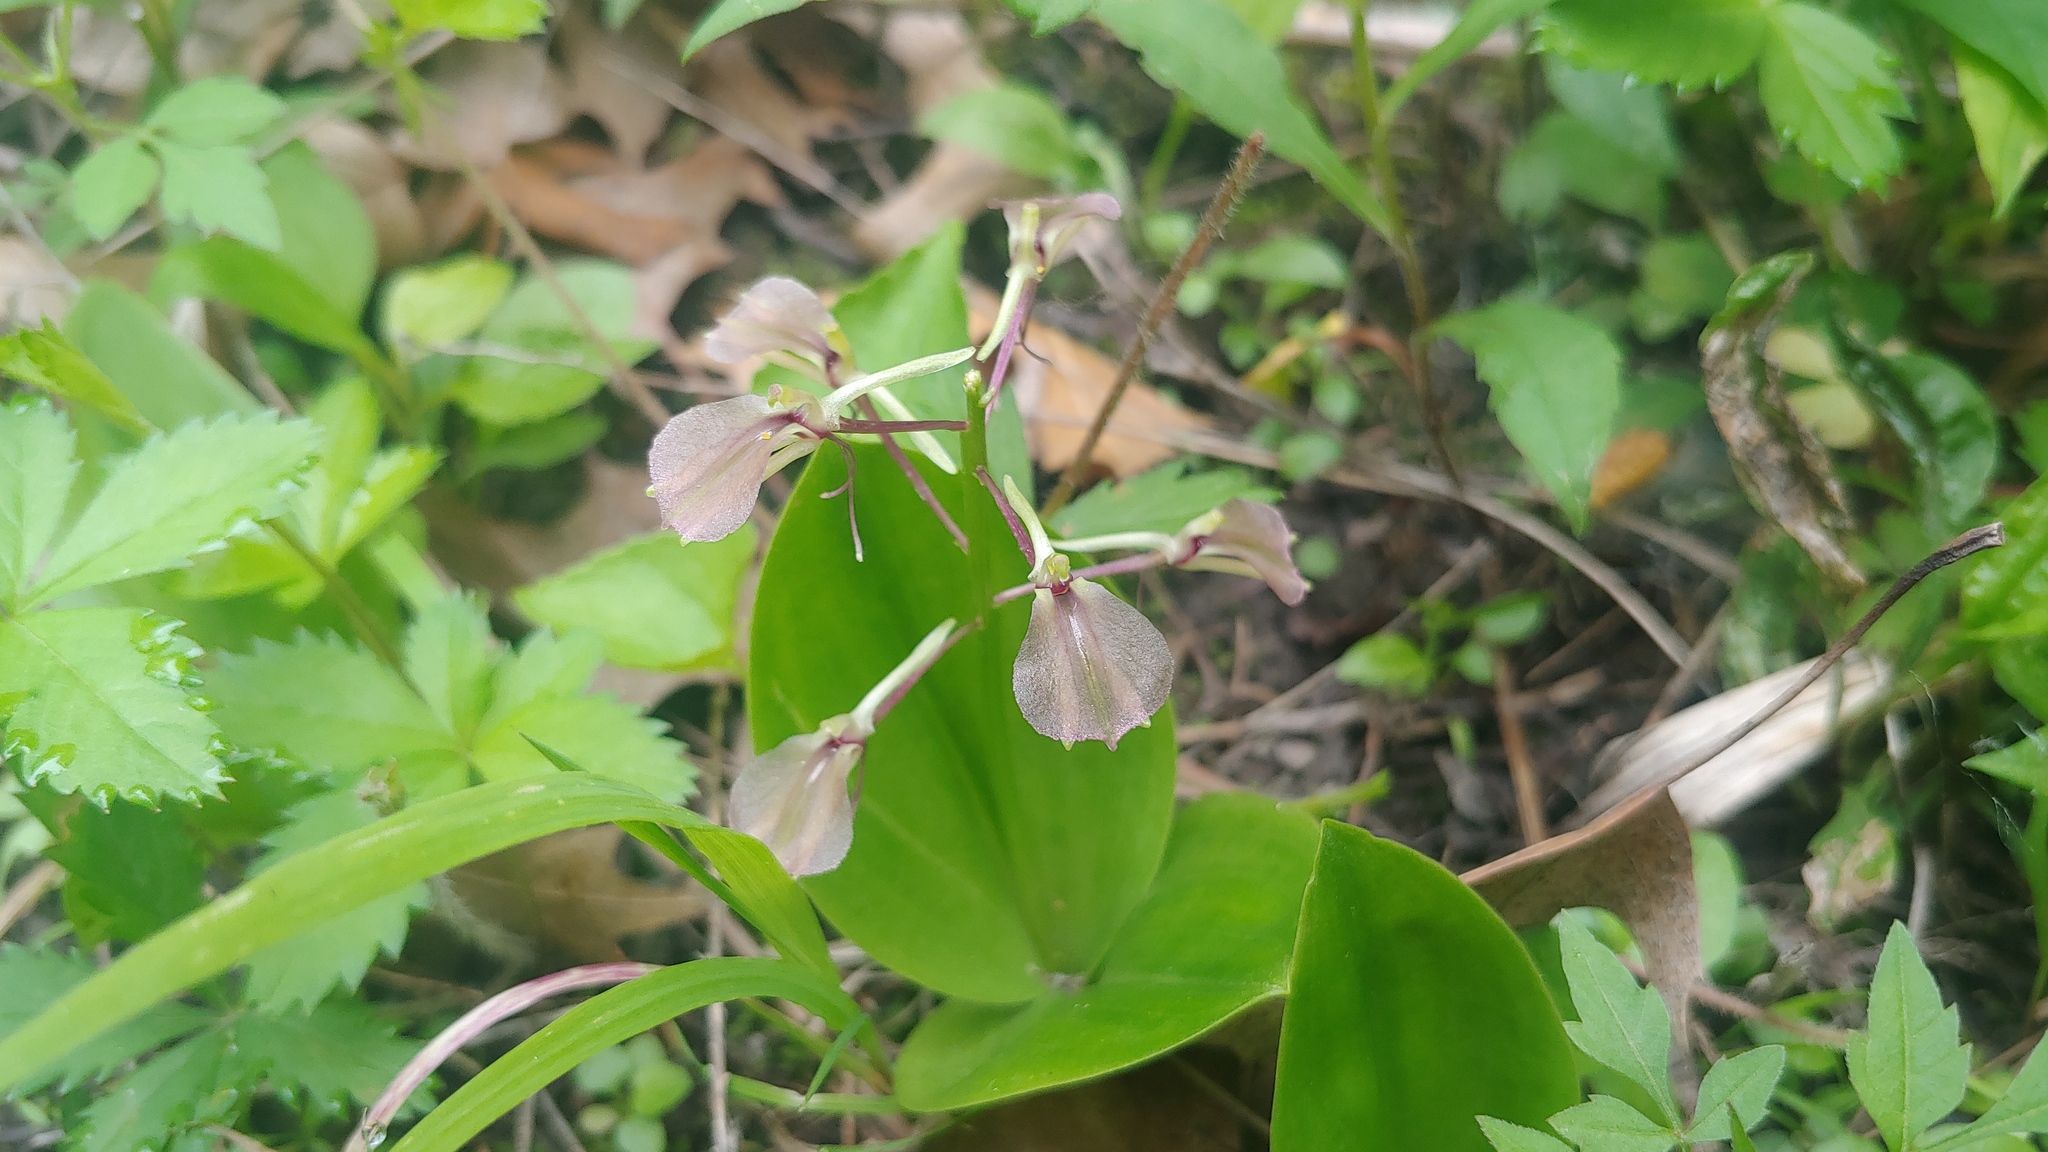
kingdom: Plantae
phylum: Tracheophyta
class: Liliopsida
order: Asparagales
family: Orchidaceae
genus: Liparis
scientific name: Liparis liliifolia
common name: Brown wide-lip orchid
